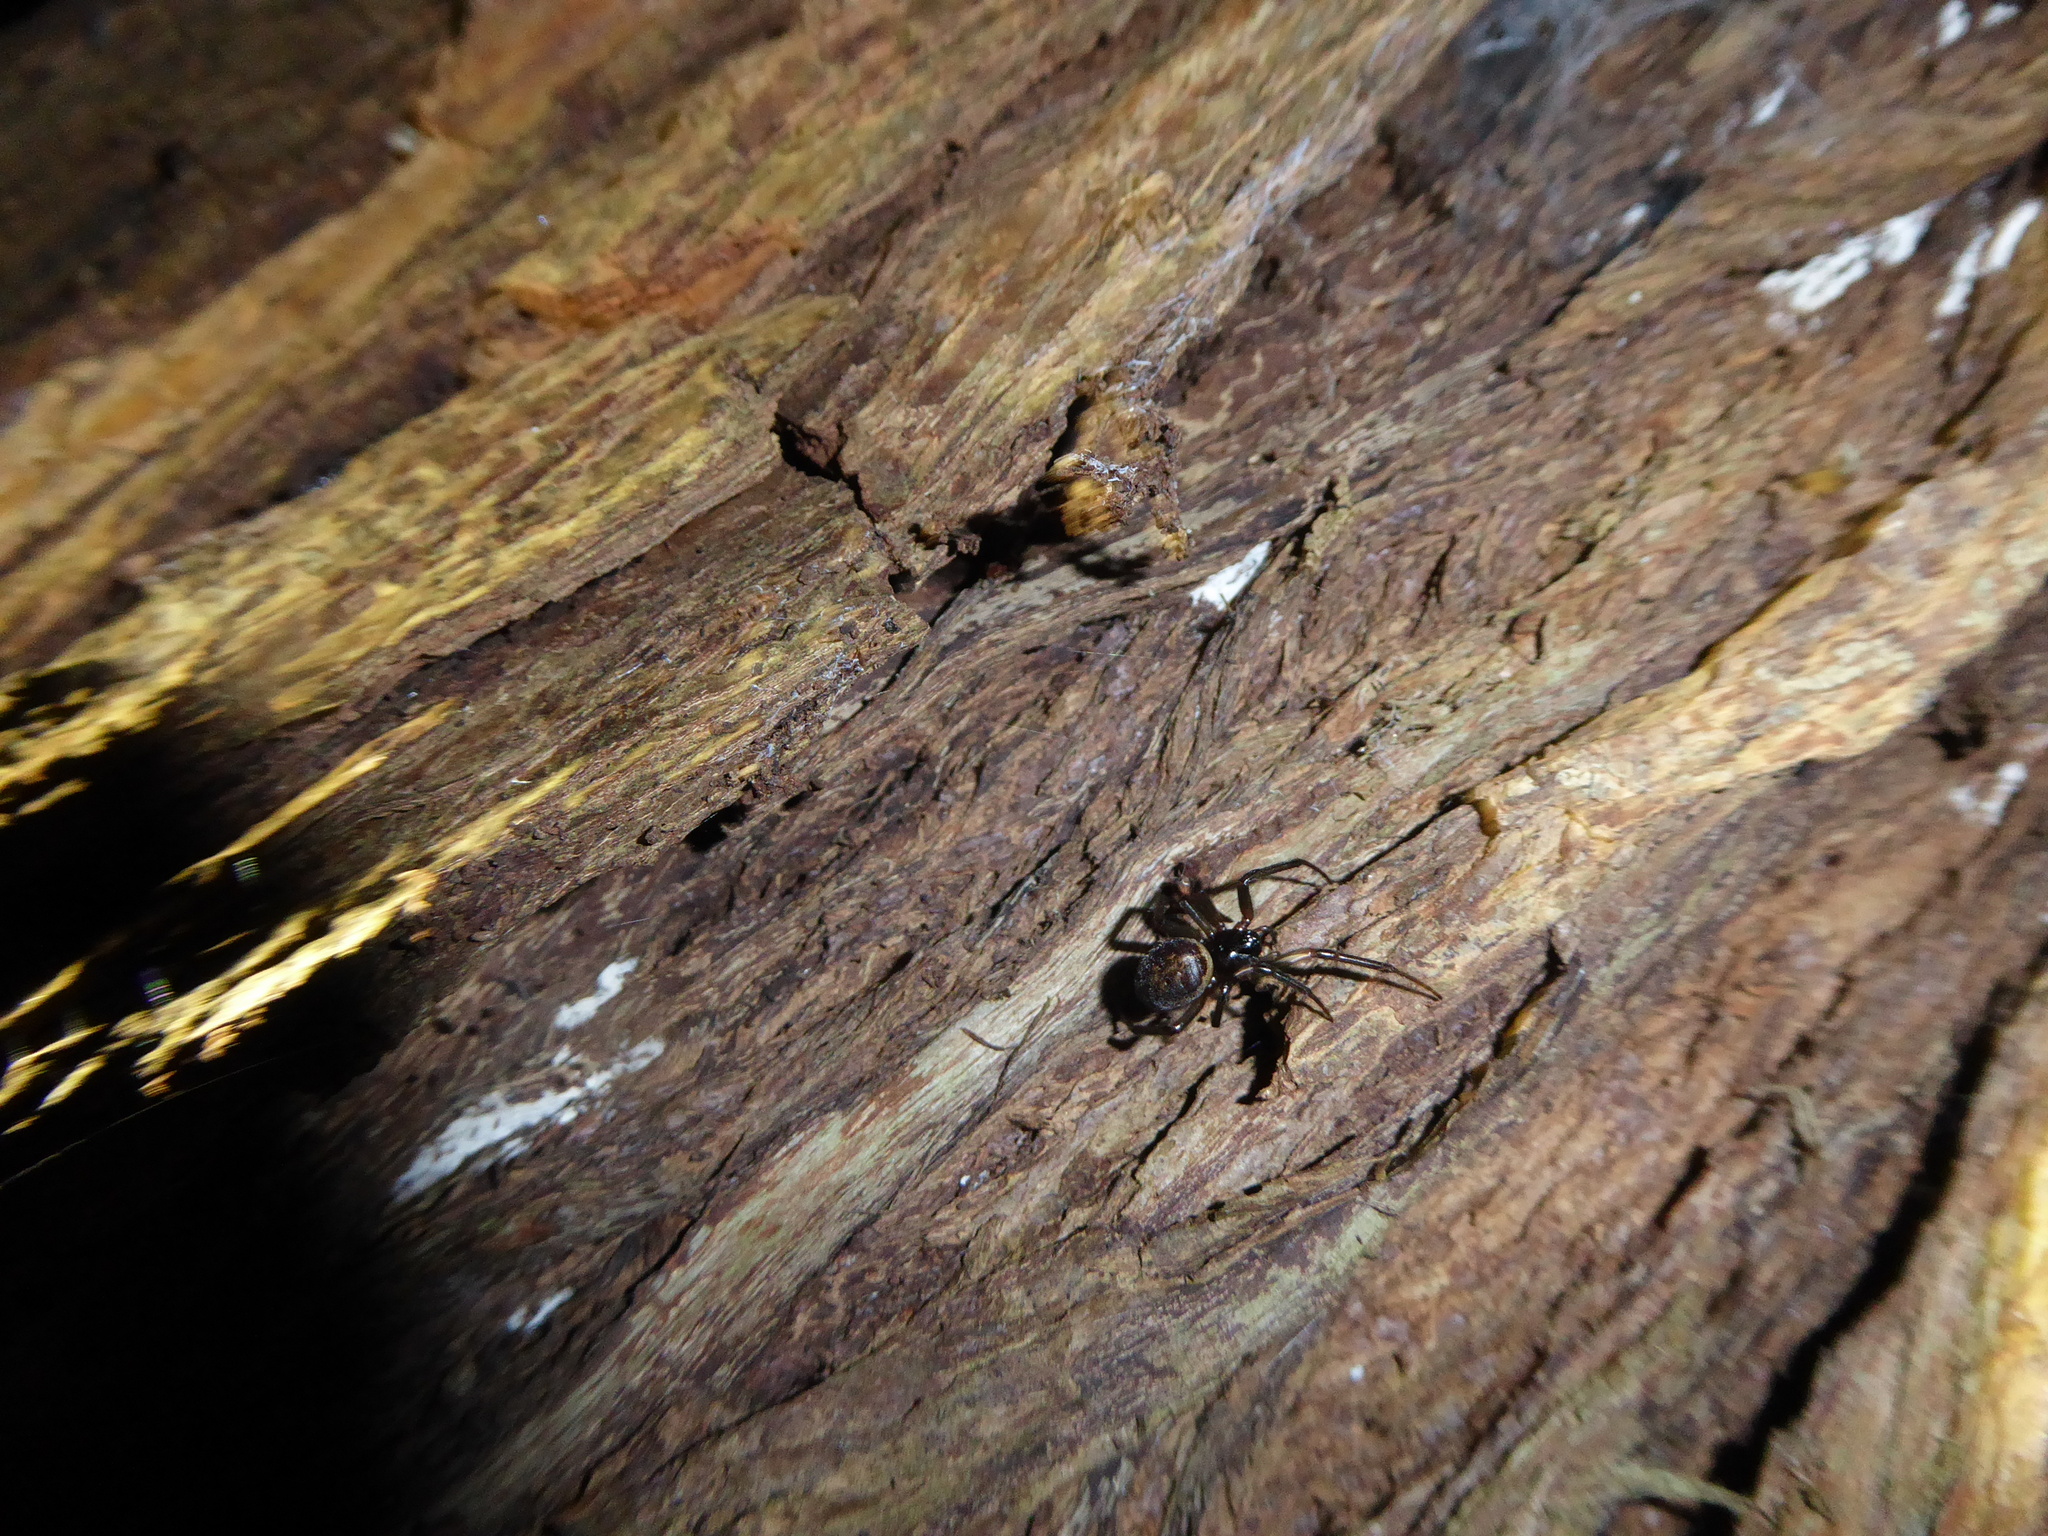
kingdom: Animalia
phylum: Arthropoda
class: Arachnida
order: Araneae
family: Theridiidae
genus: Steatoda
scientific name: Steatoda nobilis
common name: Cobweb weaver
